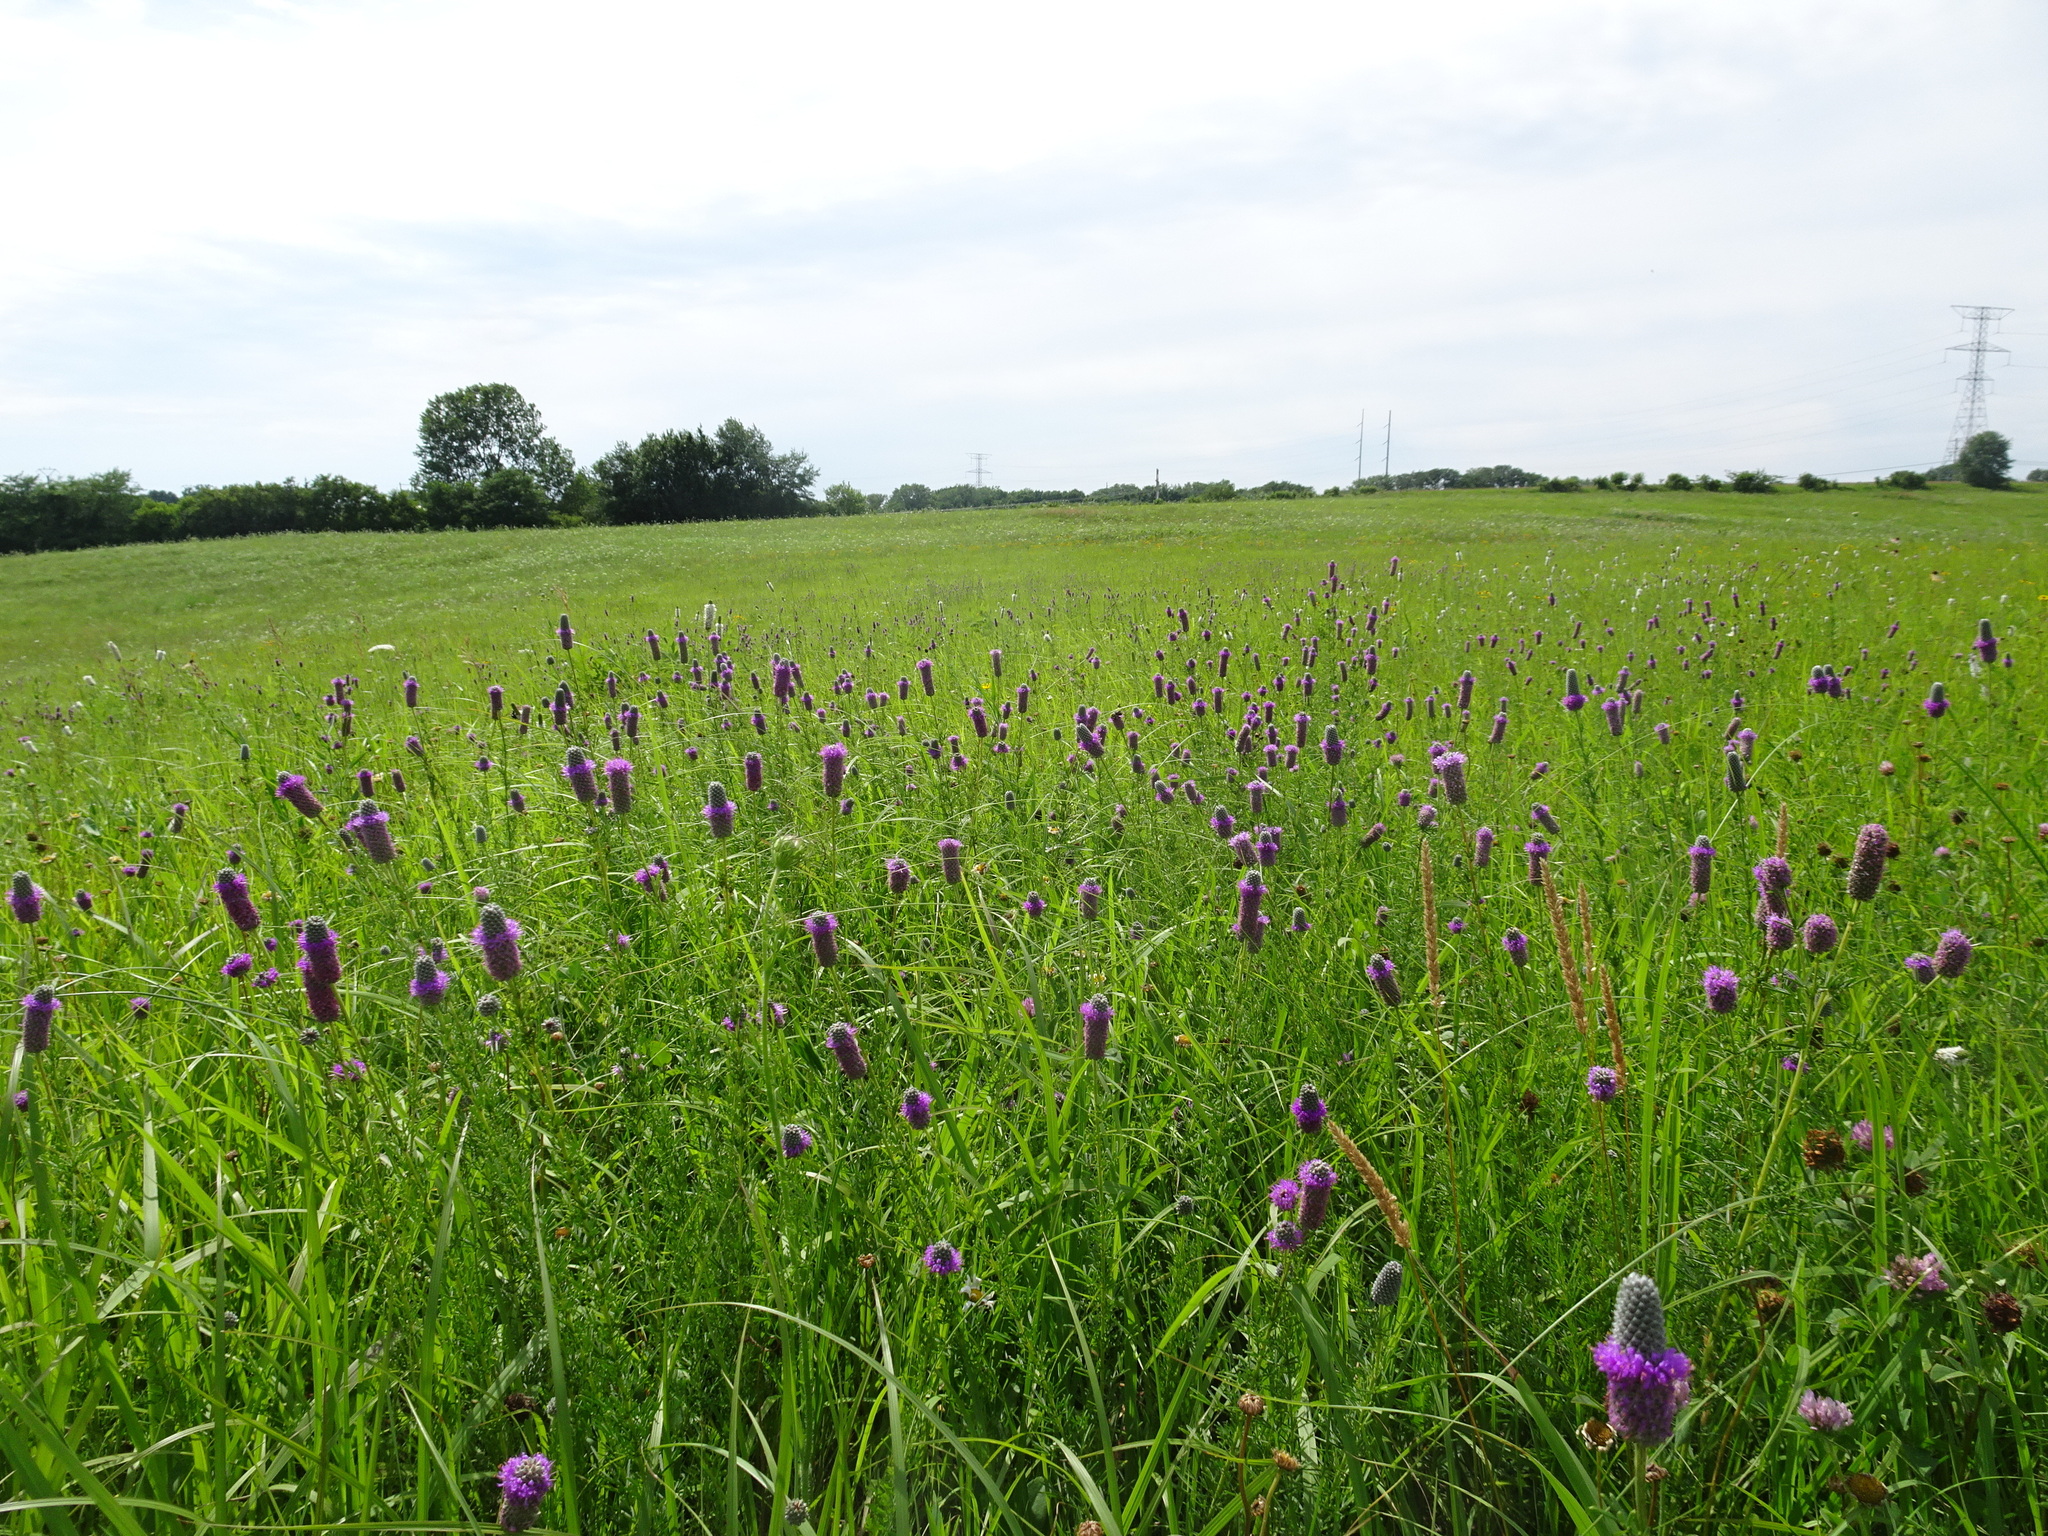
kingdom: Plantae
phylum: Tracheophyta
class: Magnoliopsida
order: Fabales
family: Fabaceae
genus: Dalea
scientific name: Dalea purpurea
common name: Purple prairie-clover
